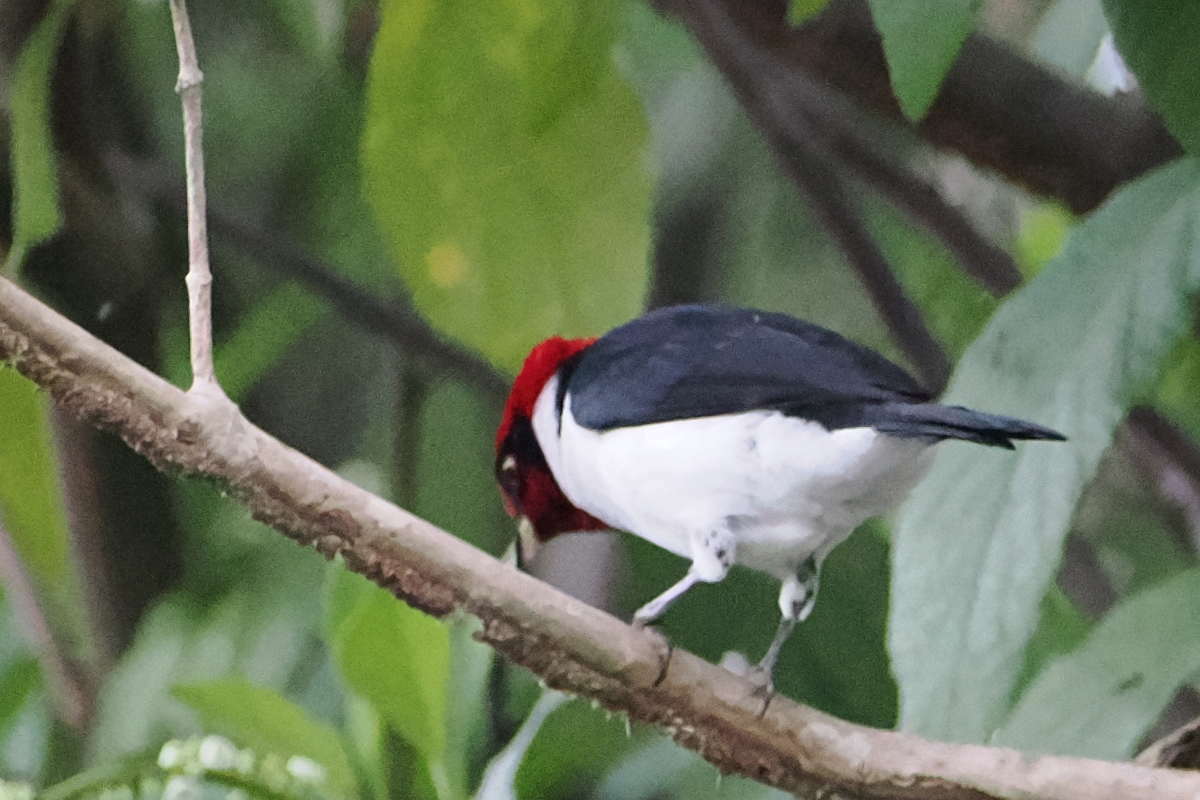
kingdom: Animalia
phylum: Chordata
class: Aves
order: Passeriformes
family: Thraupidae
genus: Paroaria
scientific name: Paroaria nigrogenis
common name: Masked cardinal
